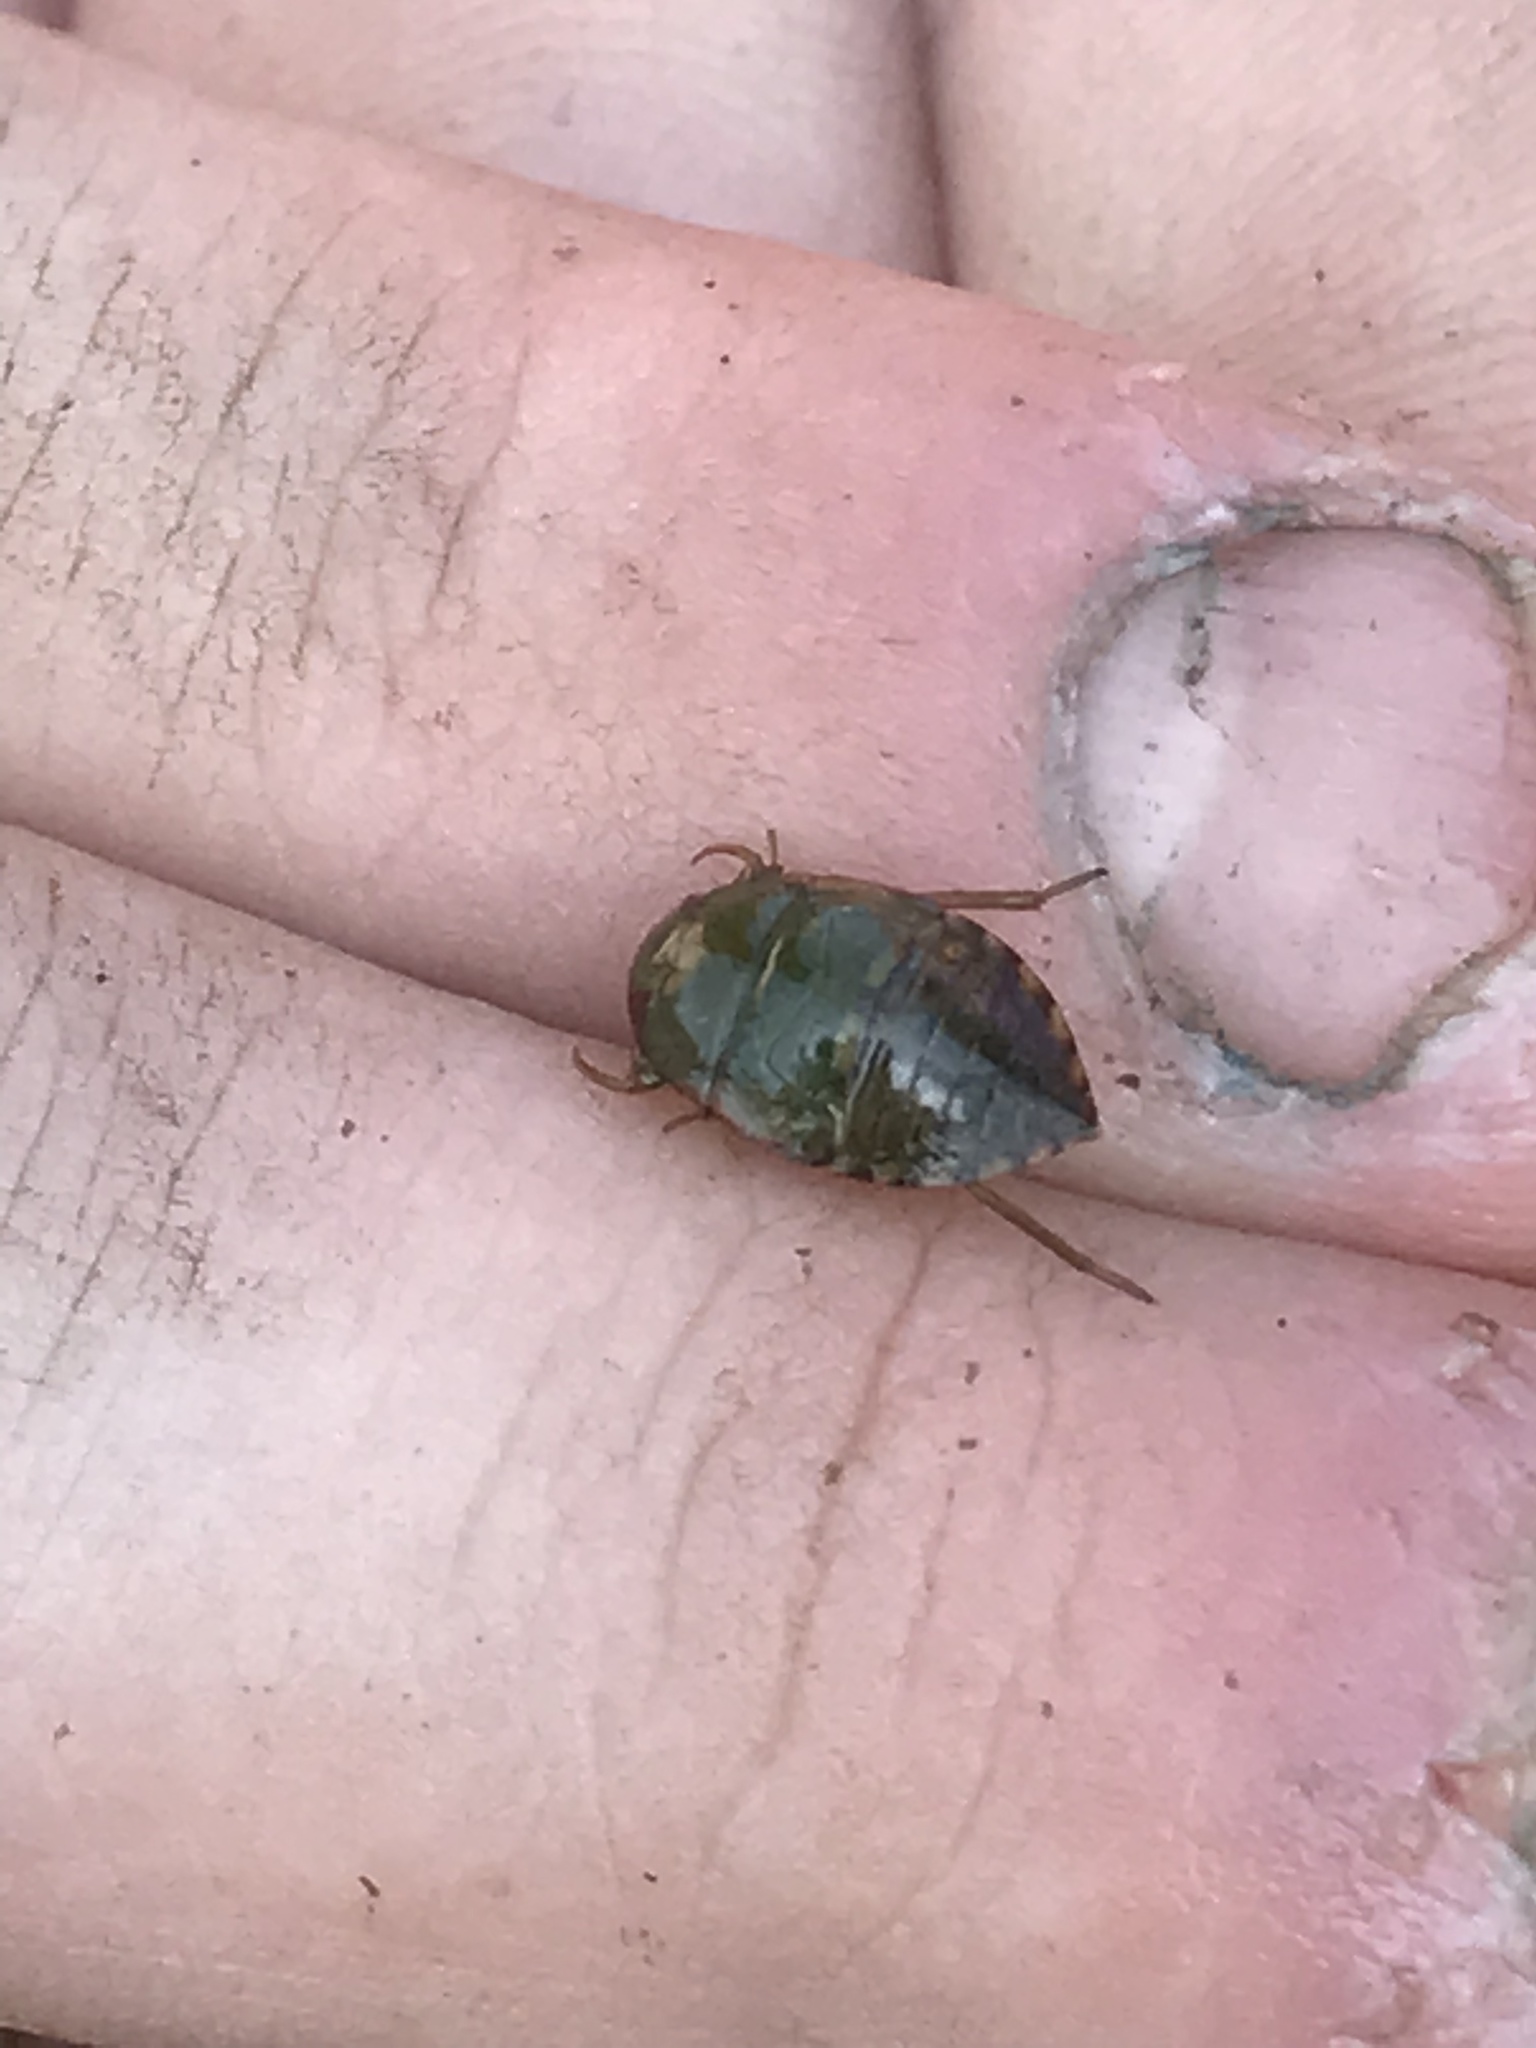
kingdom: Animalia
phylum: Arthropoda
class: Insecta
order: Hemiptera
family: Naucoridae
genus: Pelocoris
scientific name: Pelocoris femoratus
